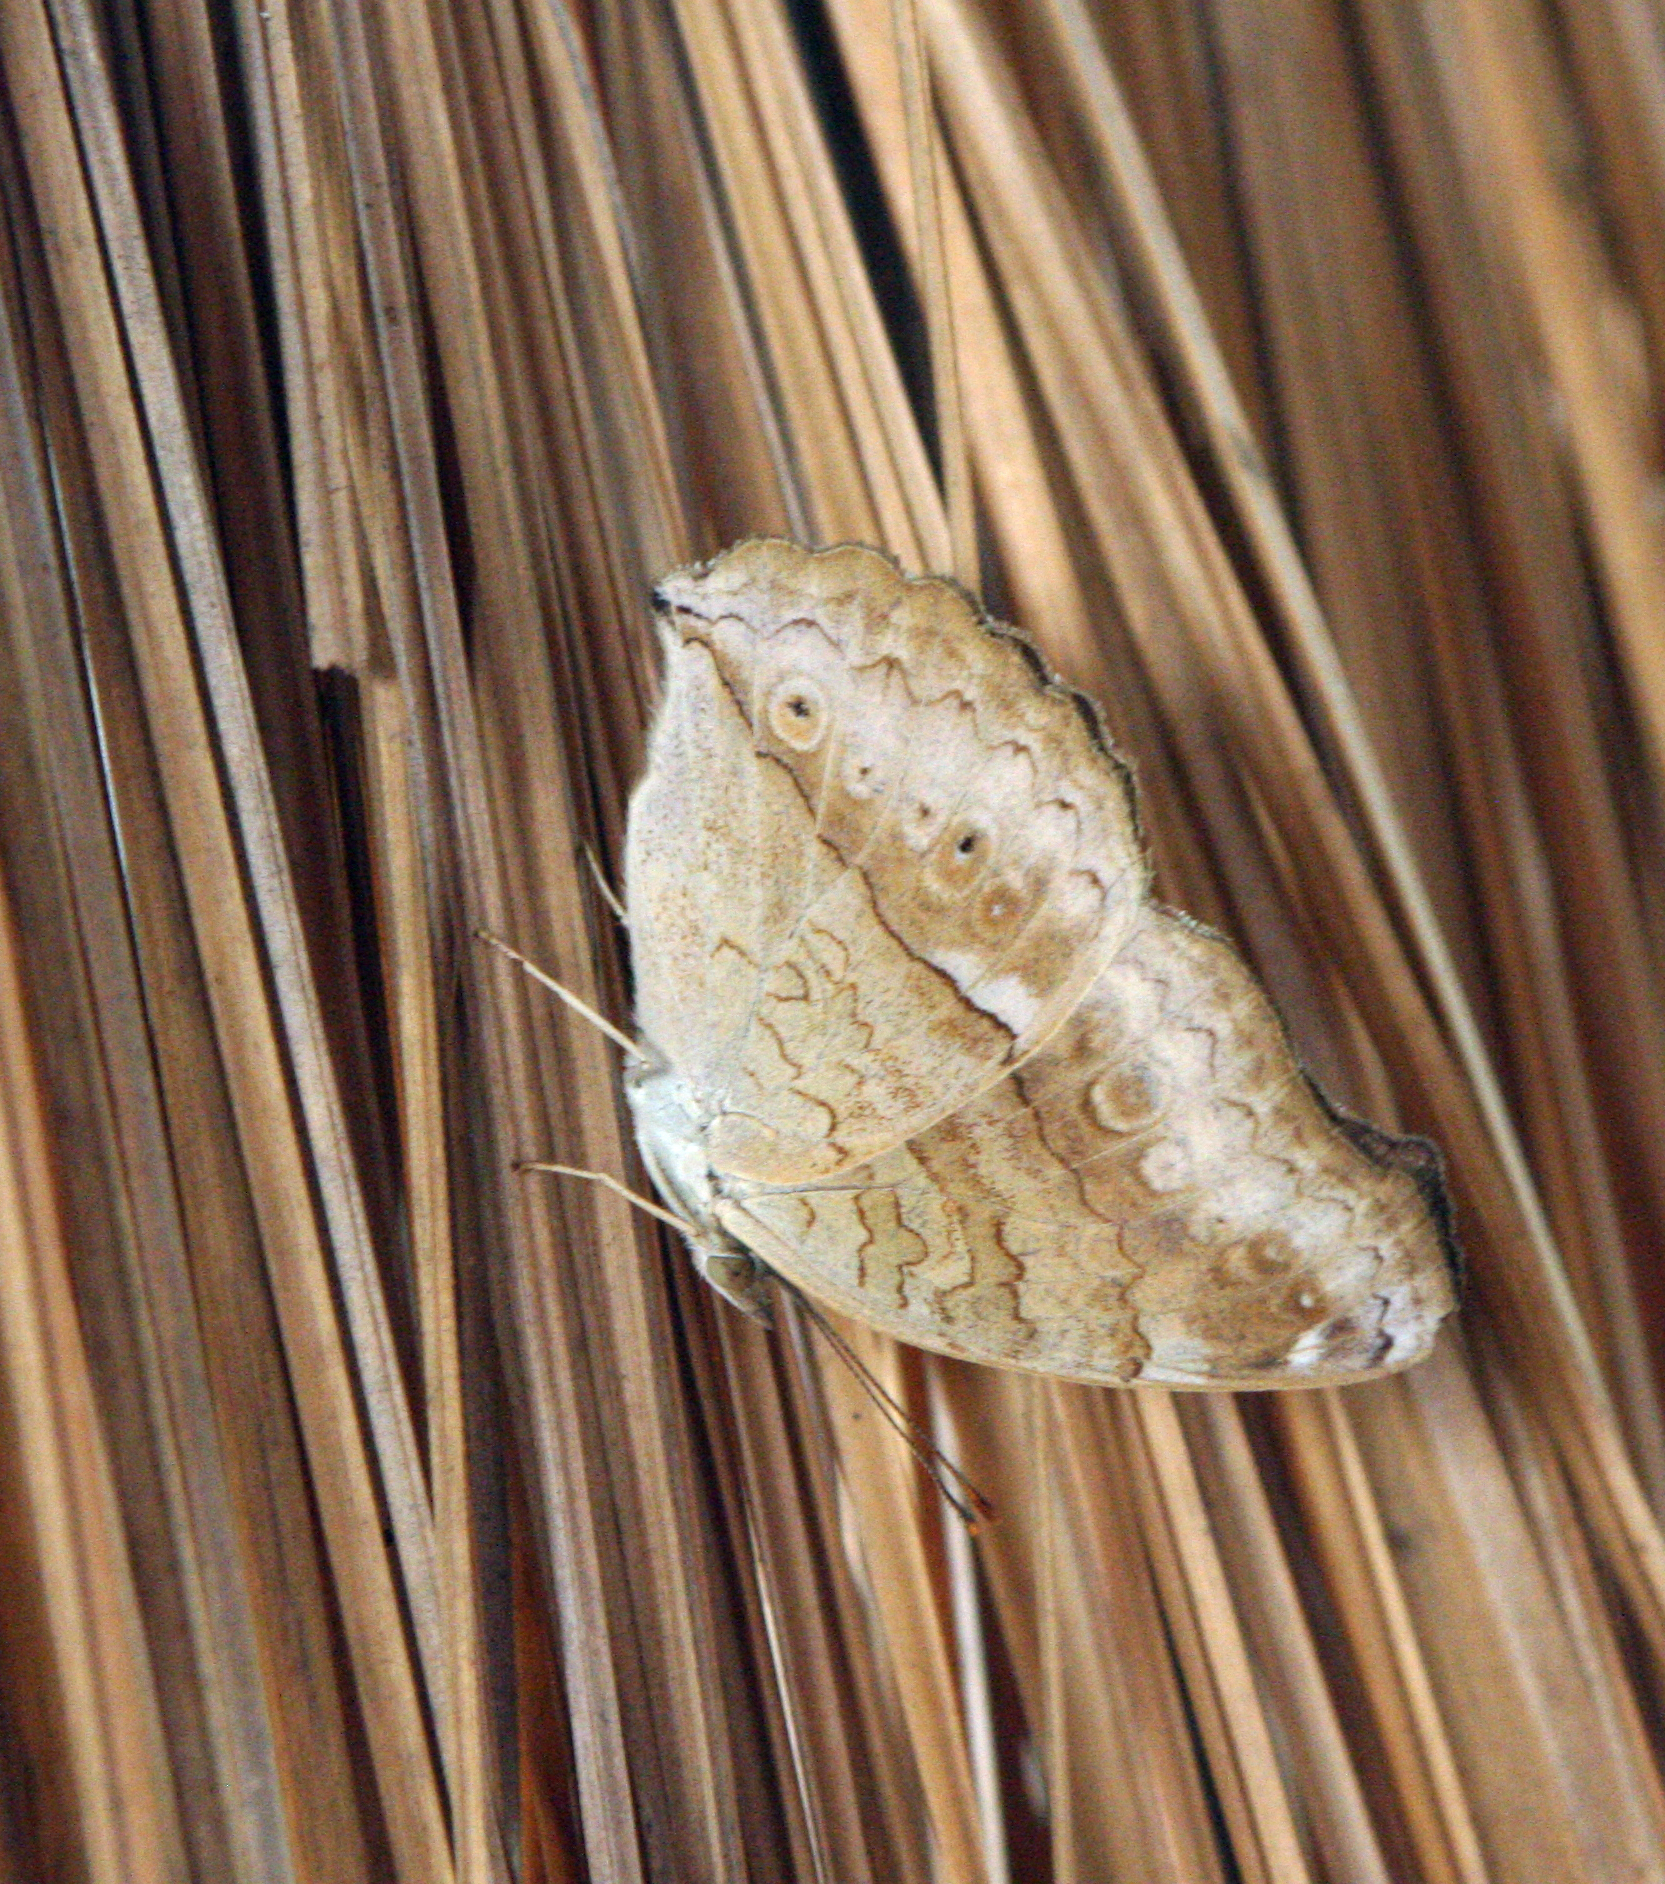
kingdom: Animalia
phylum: Arthropoda
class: Insecta
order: Lepidoptera
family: Nymphalidae
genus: Junonia
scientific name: Junonia atlites
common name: Grey pansy
